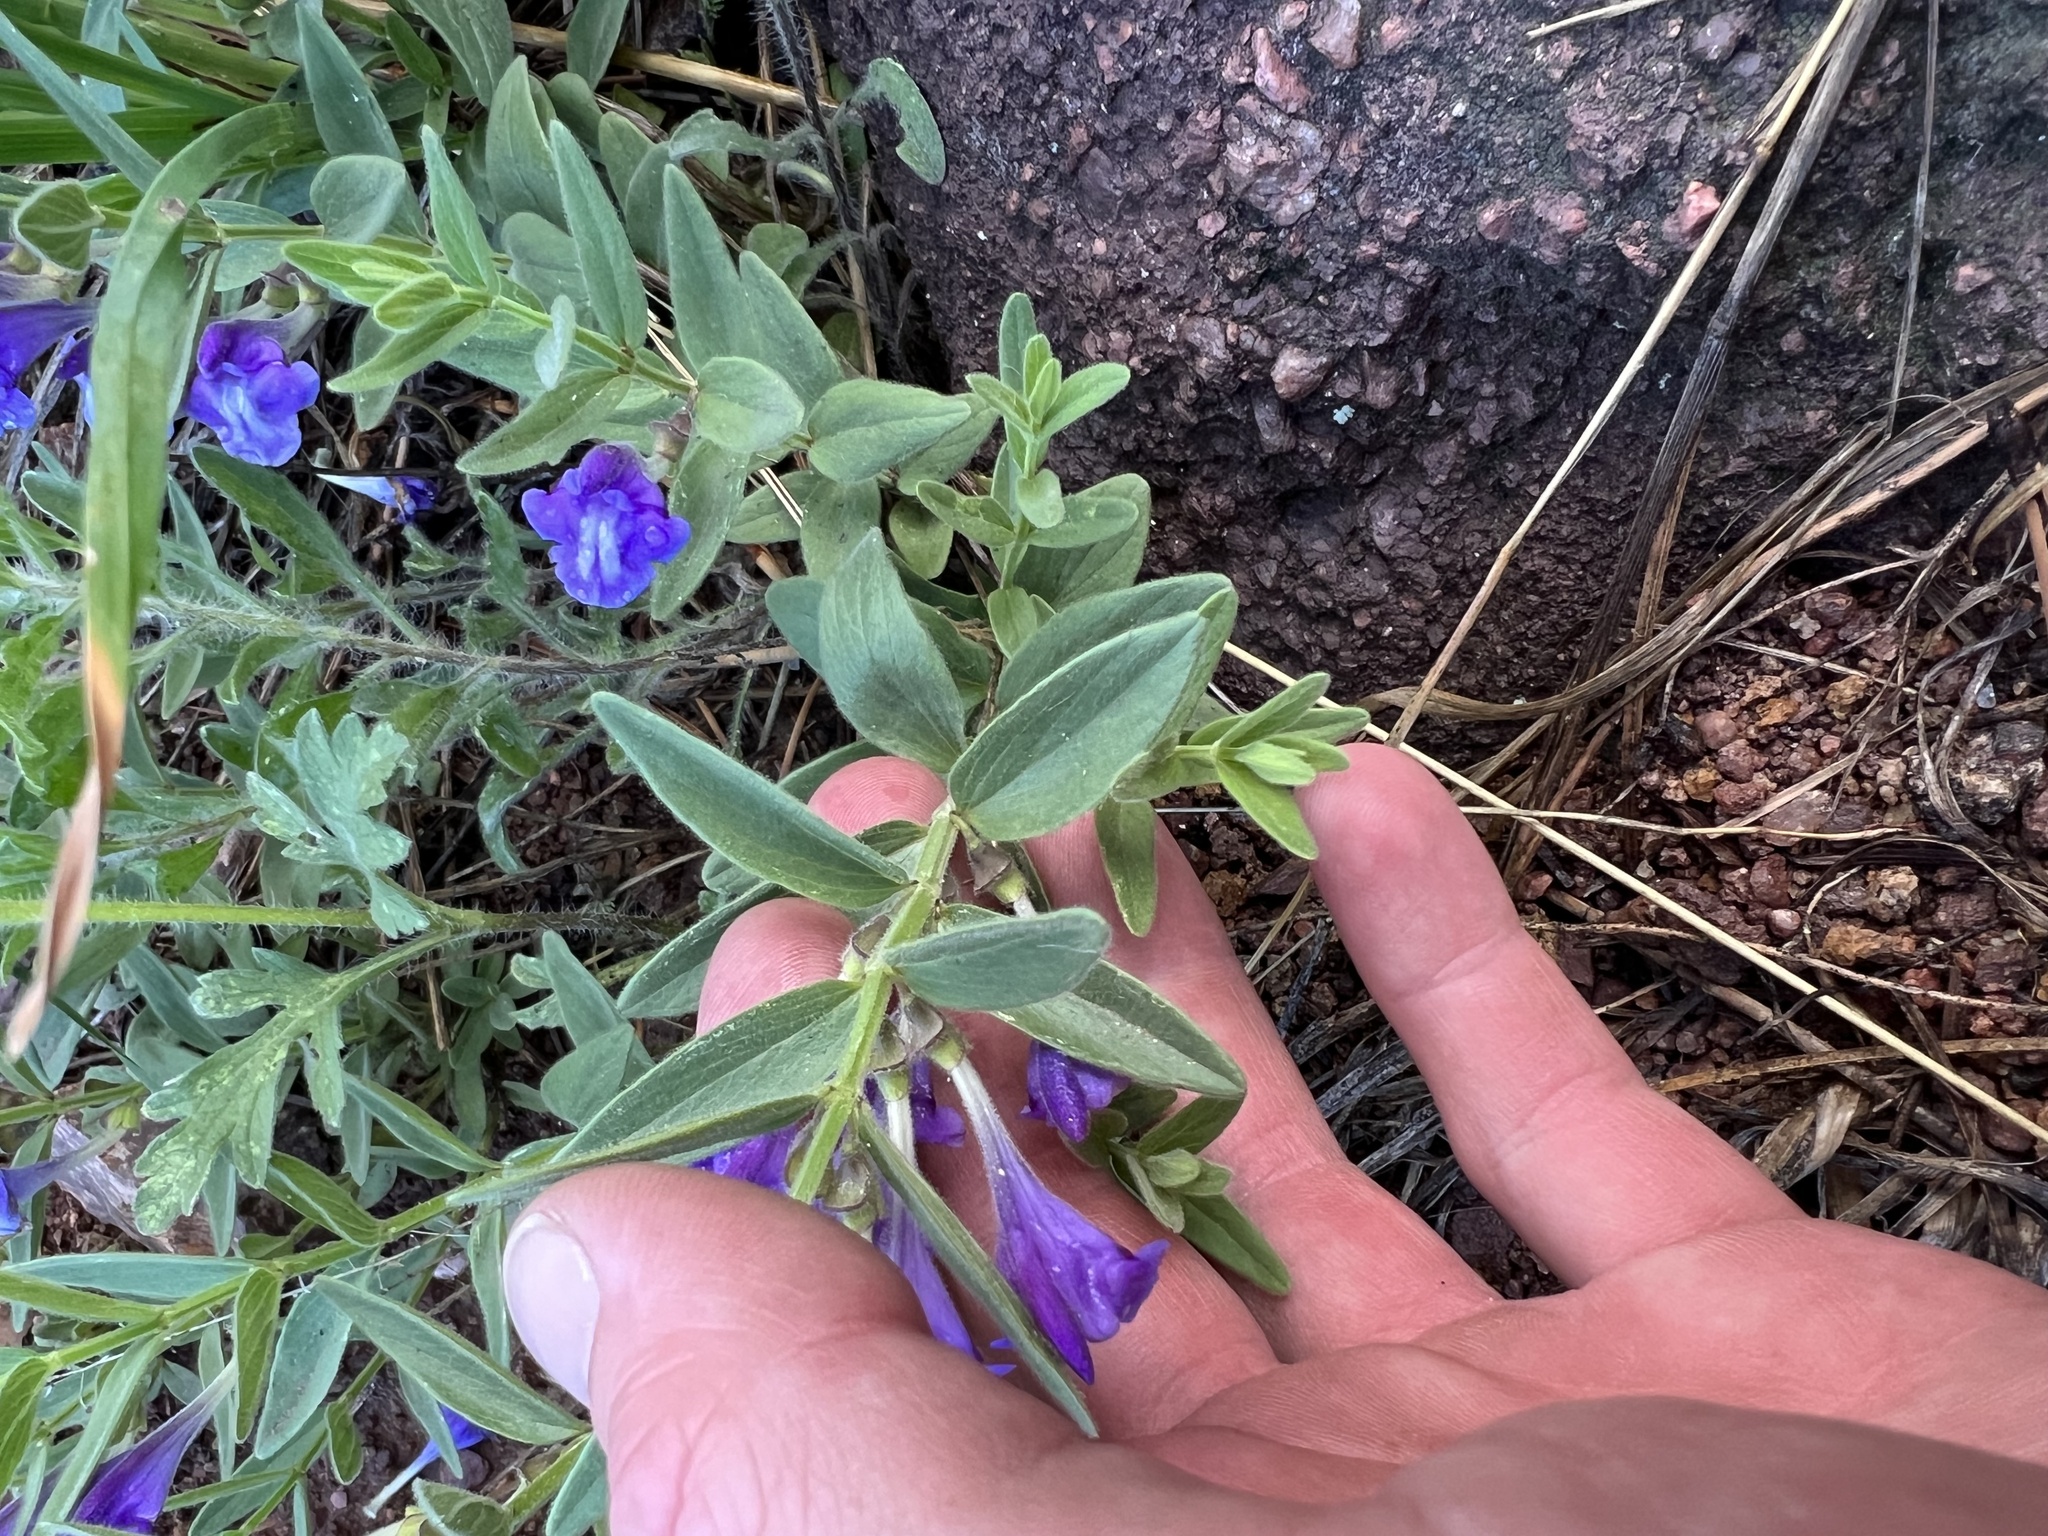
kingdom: Plantae
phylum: Tracheophyta
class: Magnoliopsida
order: Lamiales
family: Lamiaceae
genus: Scutellaria
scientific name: Scutellaria brittonii
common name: Britton's skullcap
